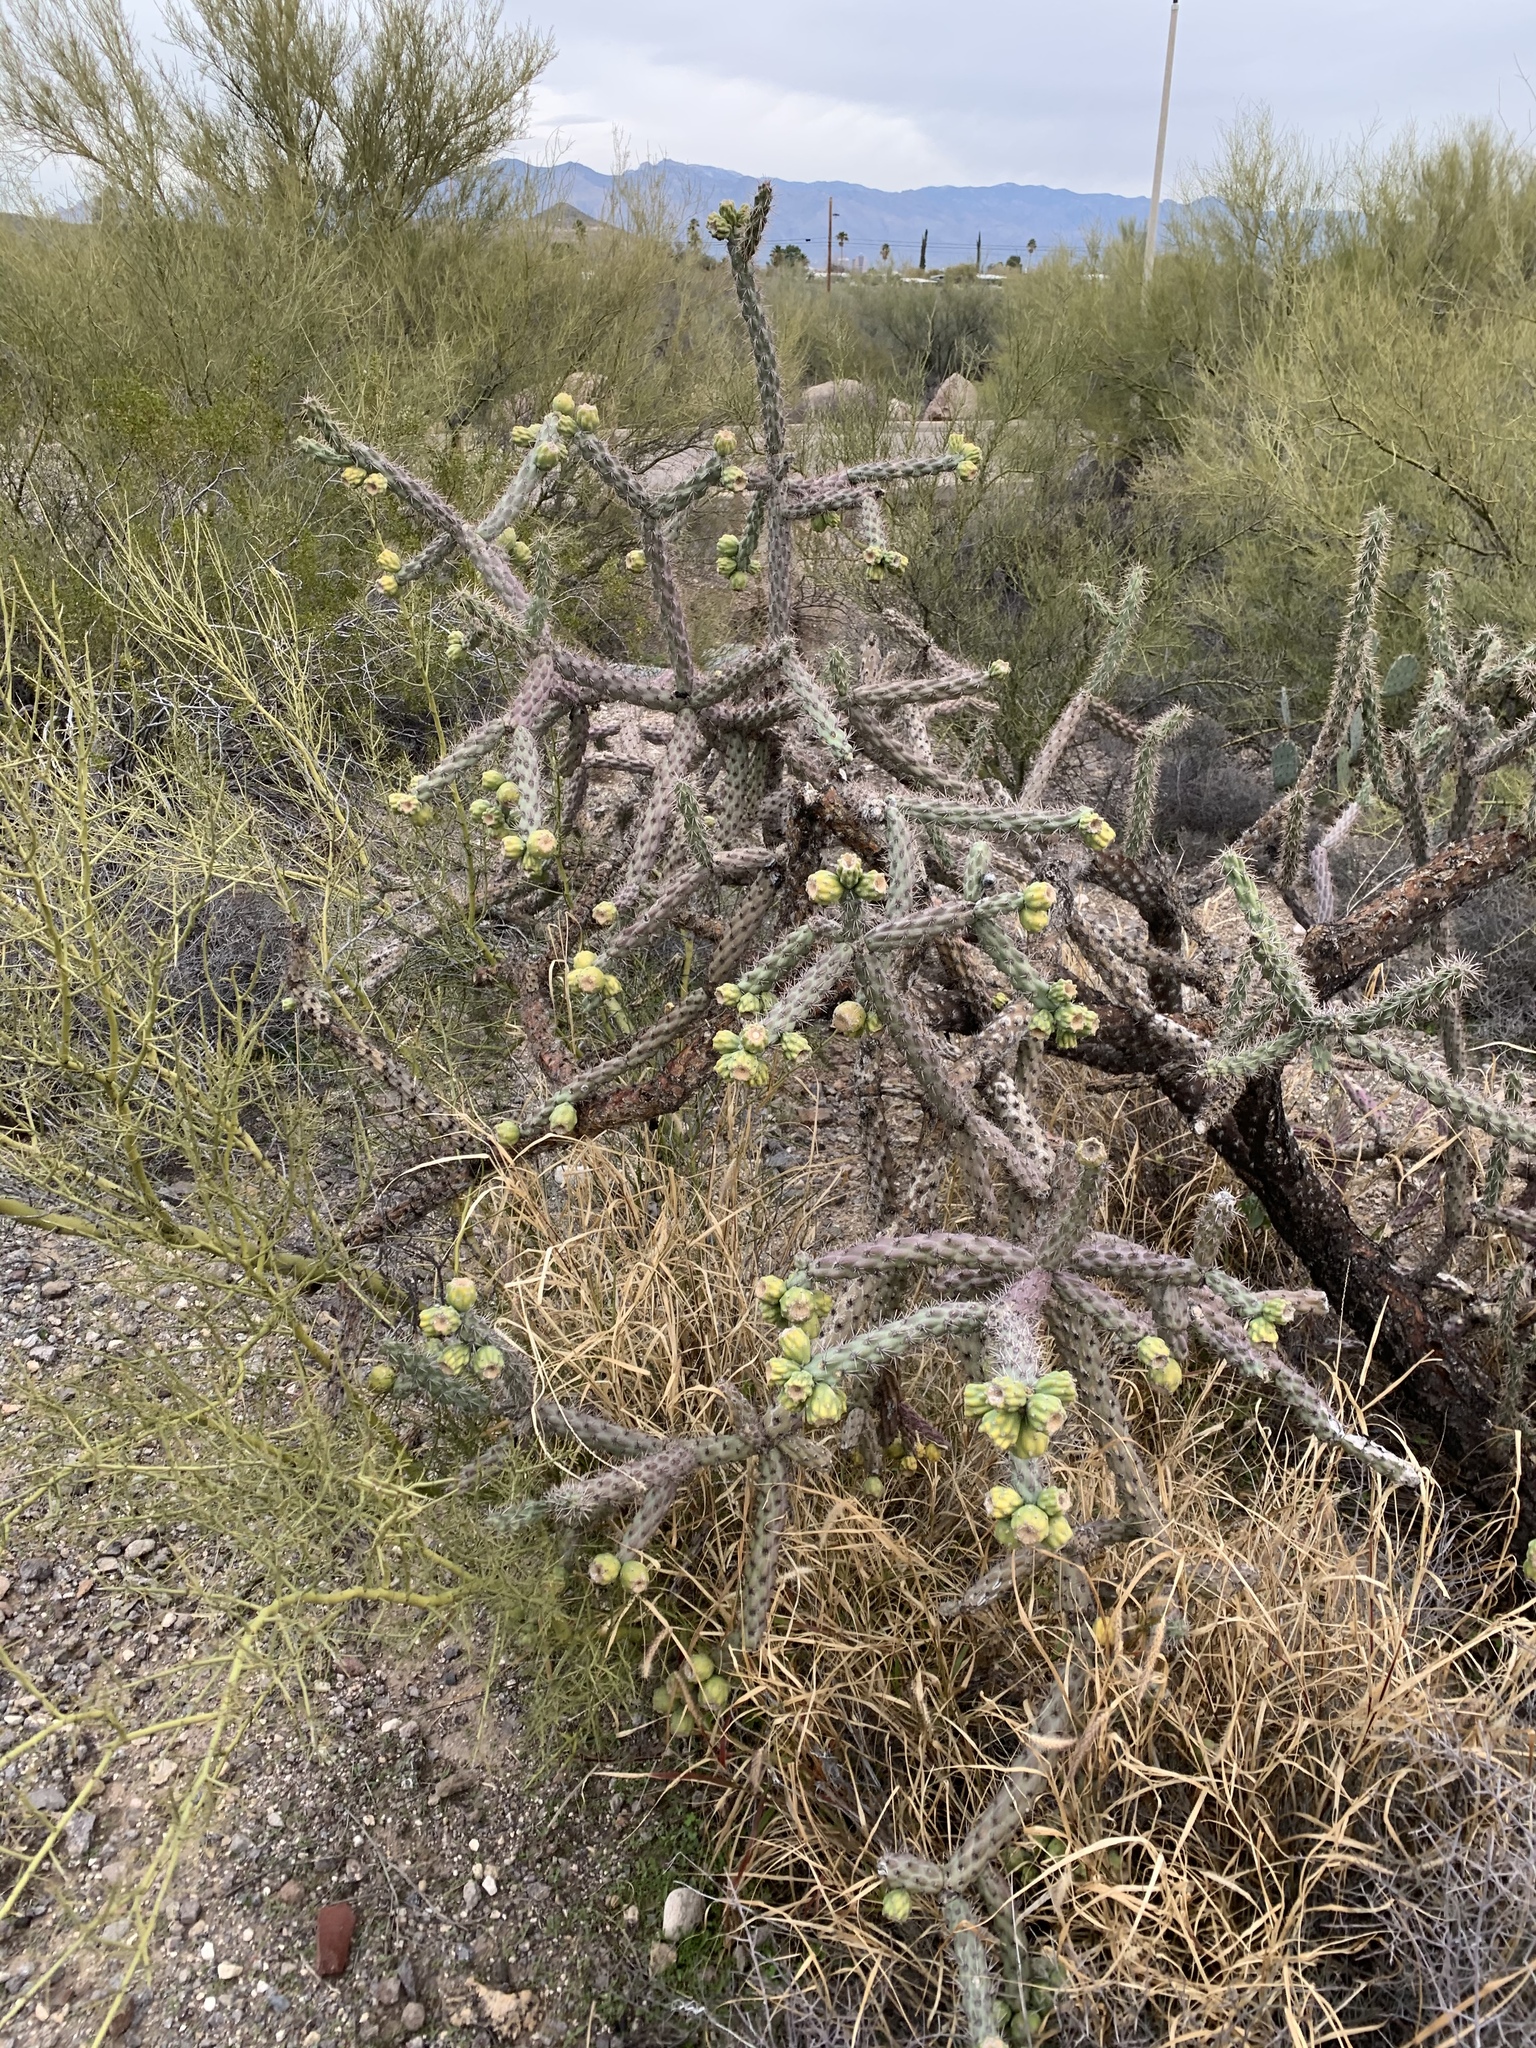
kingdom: Plantae
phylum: Tracheophyta
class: Magnoliopsida
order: Caryophyllales
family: Cactaceae
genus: Cylindropuntia
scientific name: Cylindropuntia thurberi
